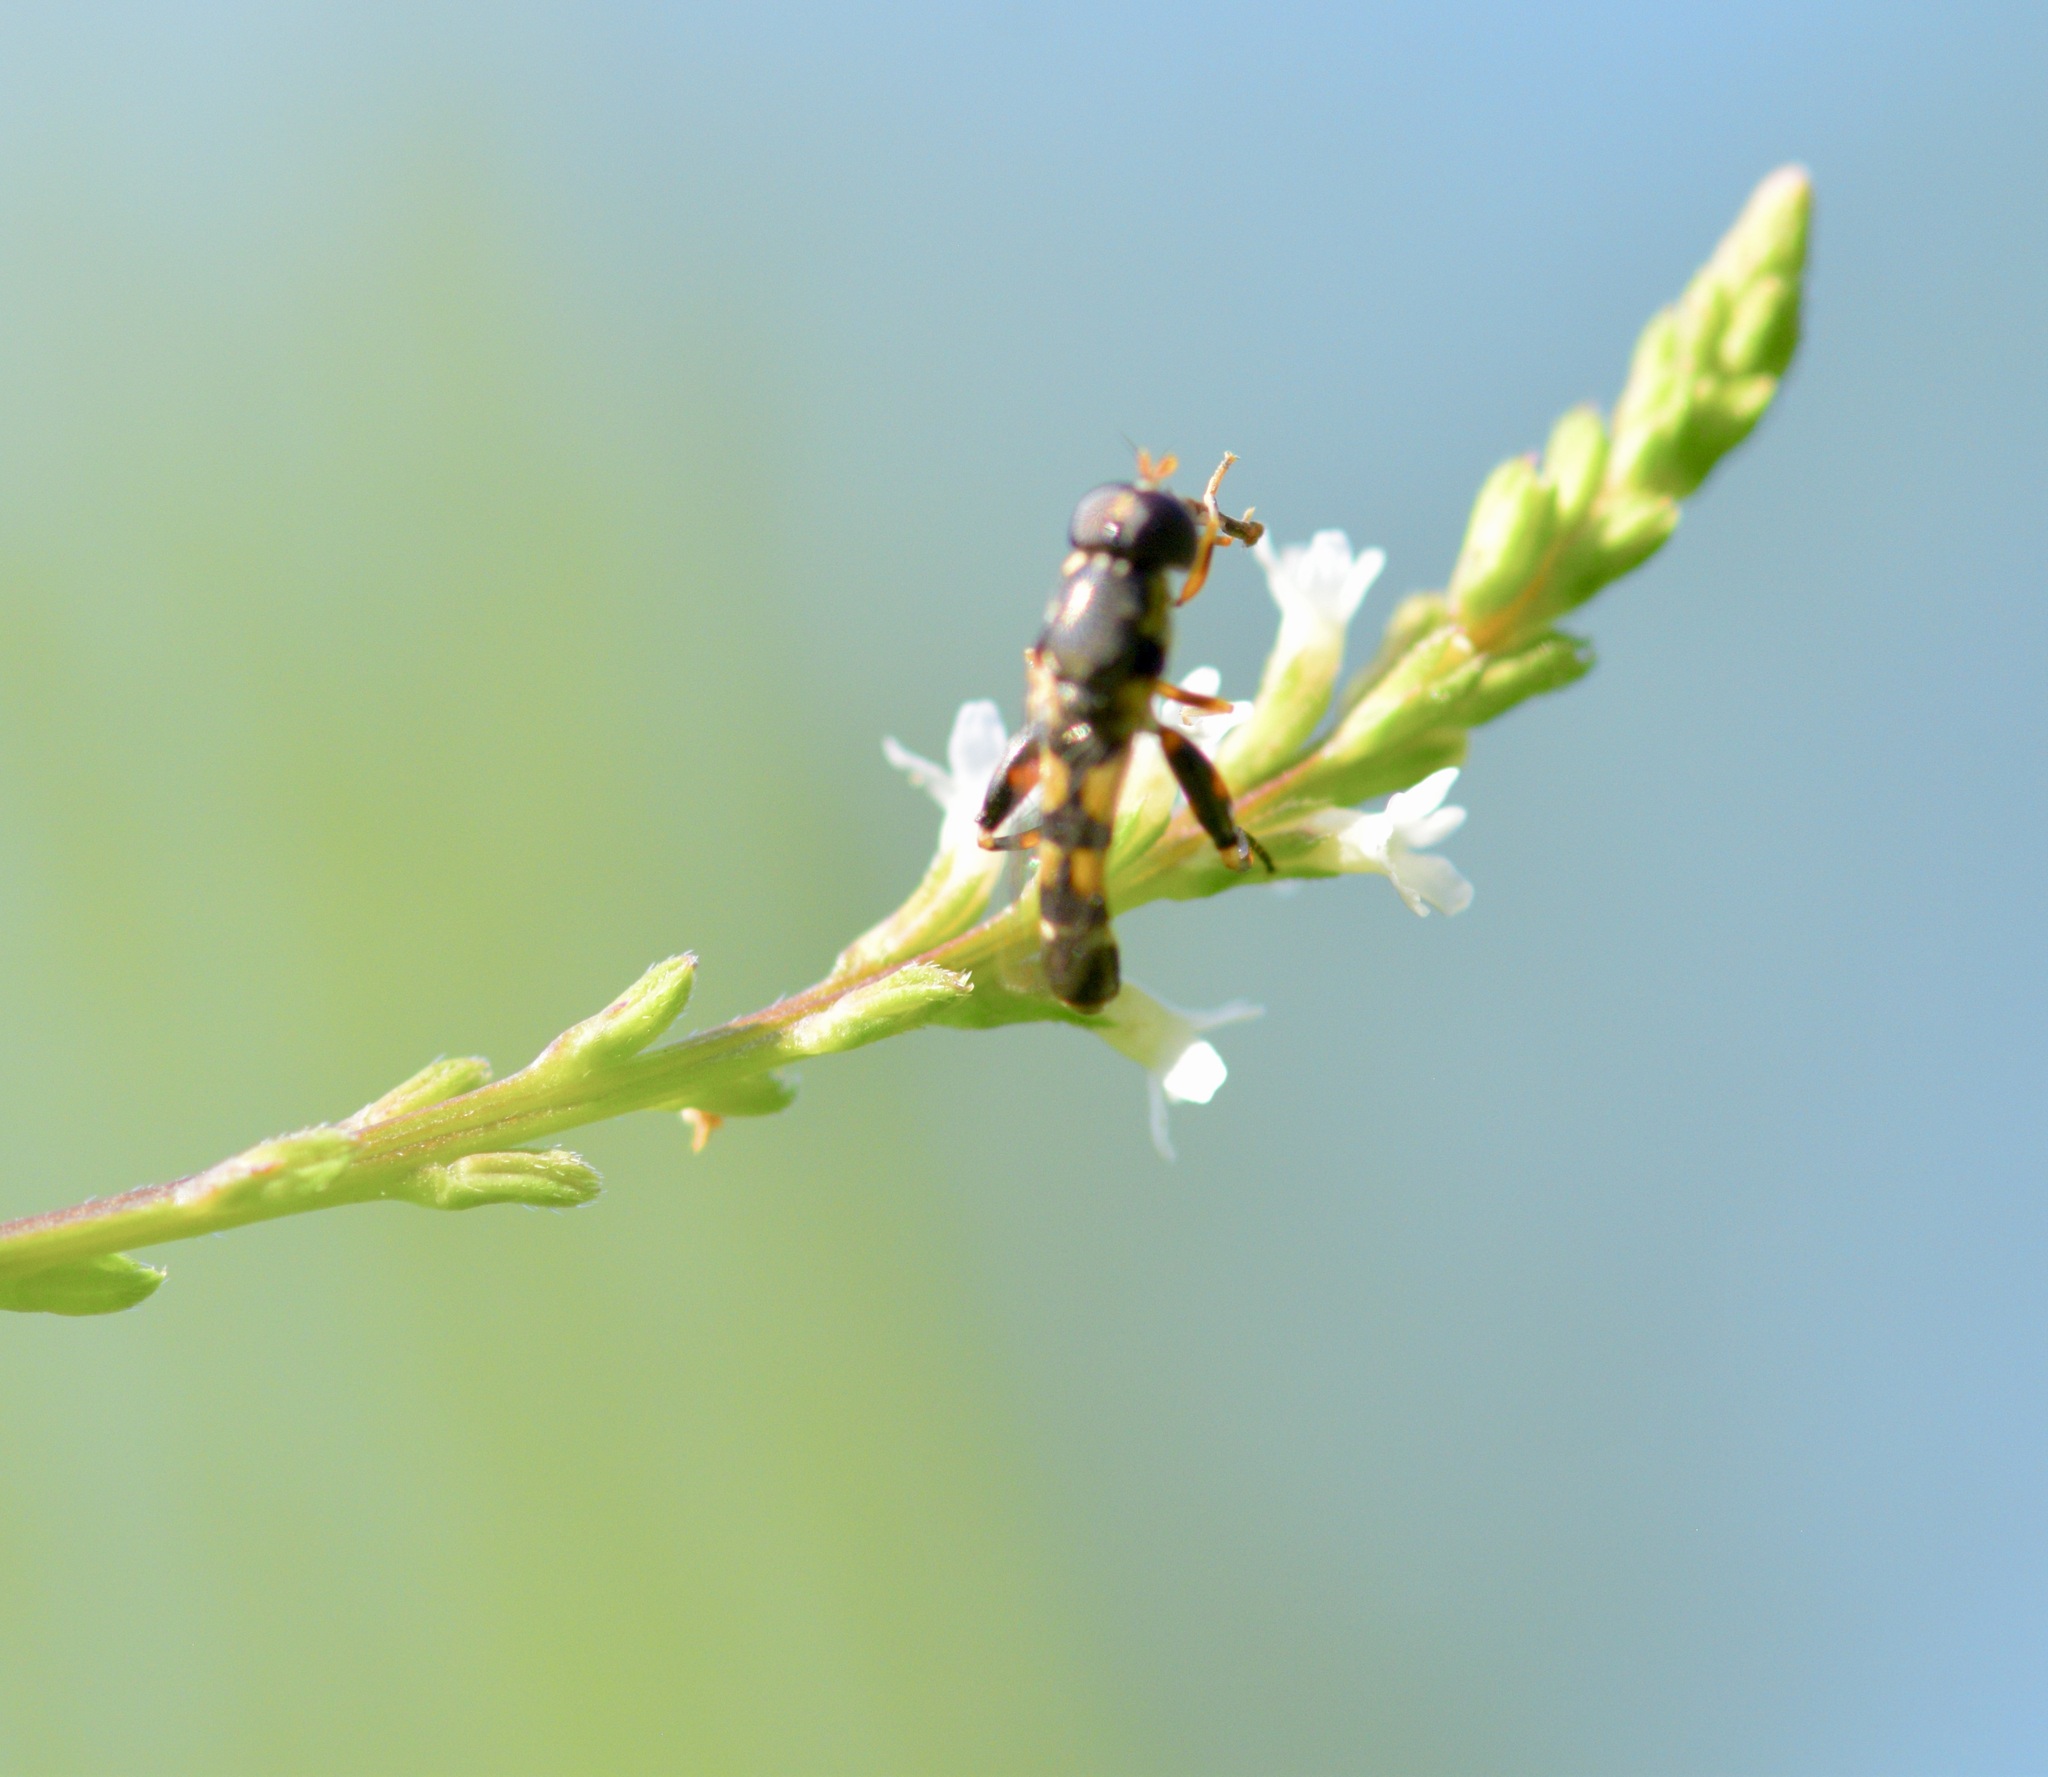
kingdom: Animalia
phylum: Arthropoda
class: Insecta
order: Diptera
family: Syrphidae
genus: Syritta
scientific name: Syritta pipiens
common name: Hover fly
